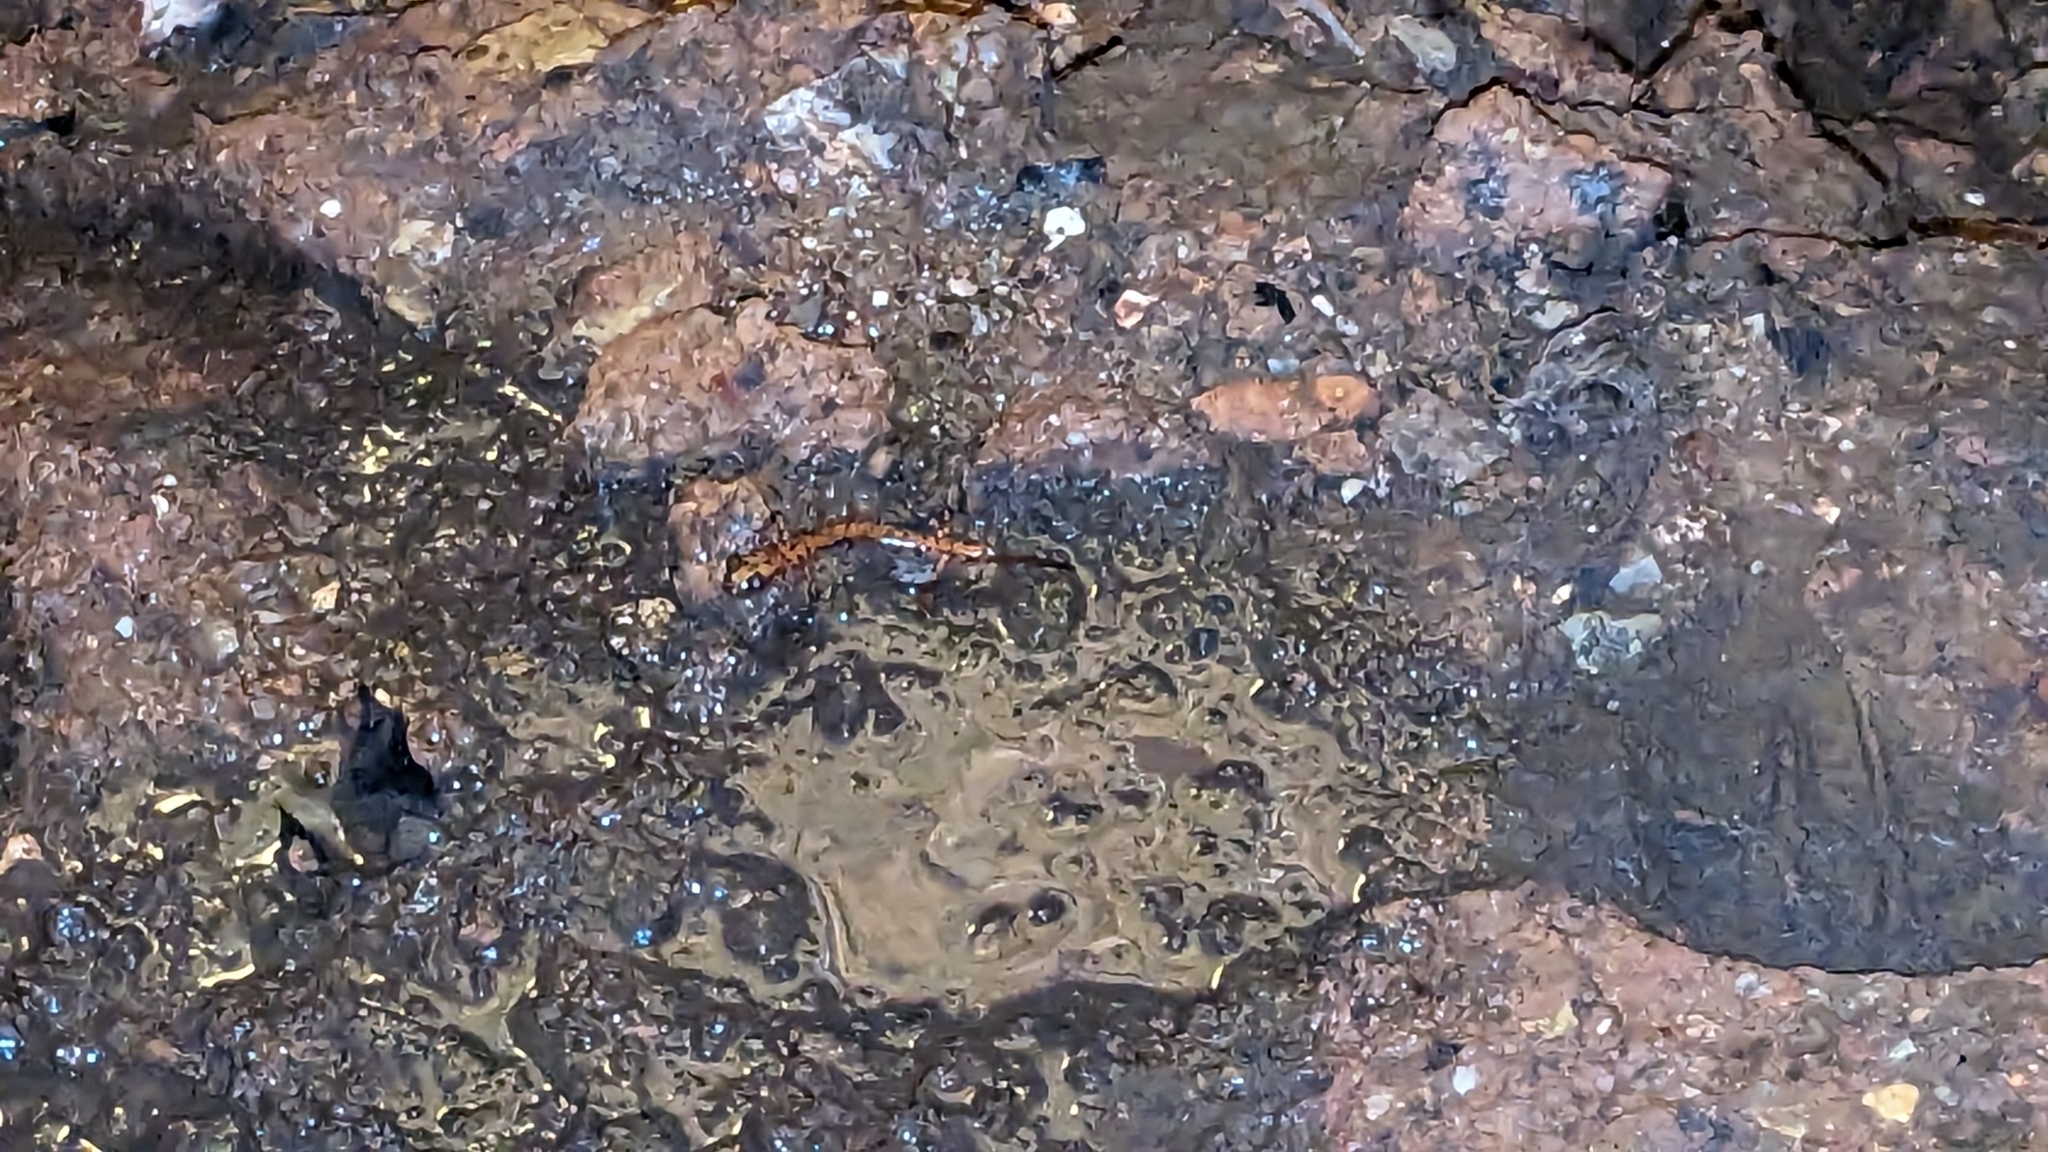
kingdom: Animalia
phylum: Chordata
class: Amphibia
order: Caudata
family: Plethodontidae
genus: Eurycea
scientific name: Eurycea lucifuga
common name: Cave salamander
